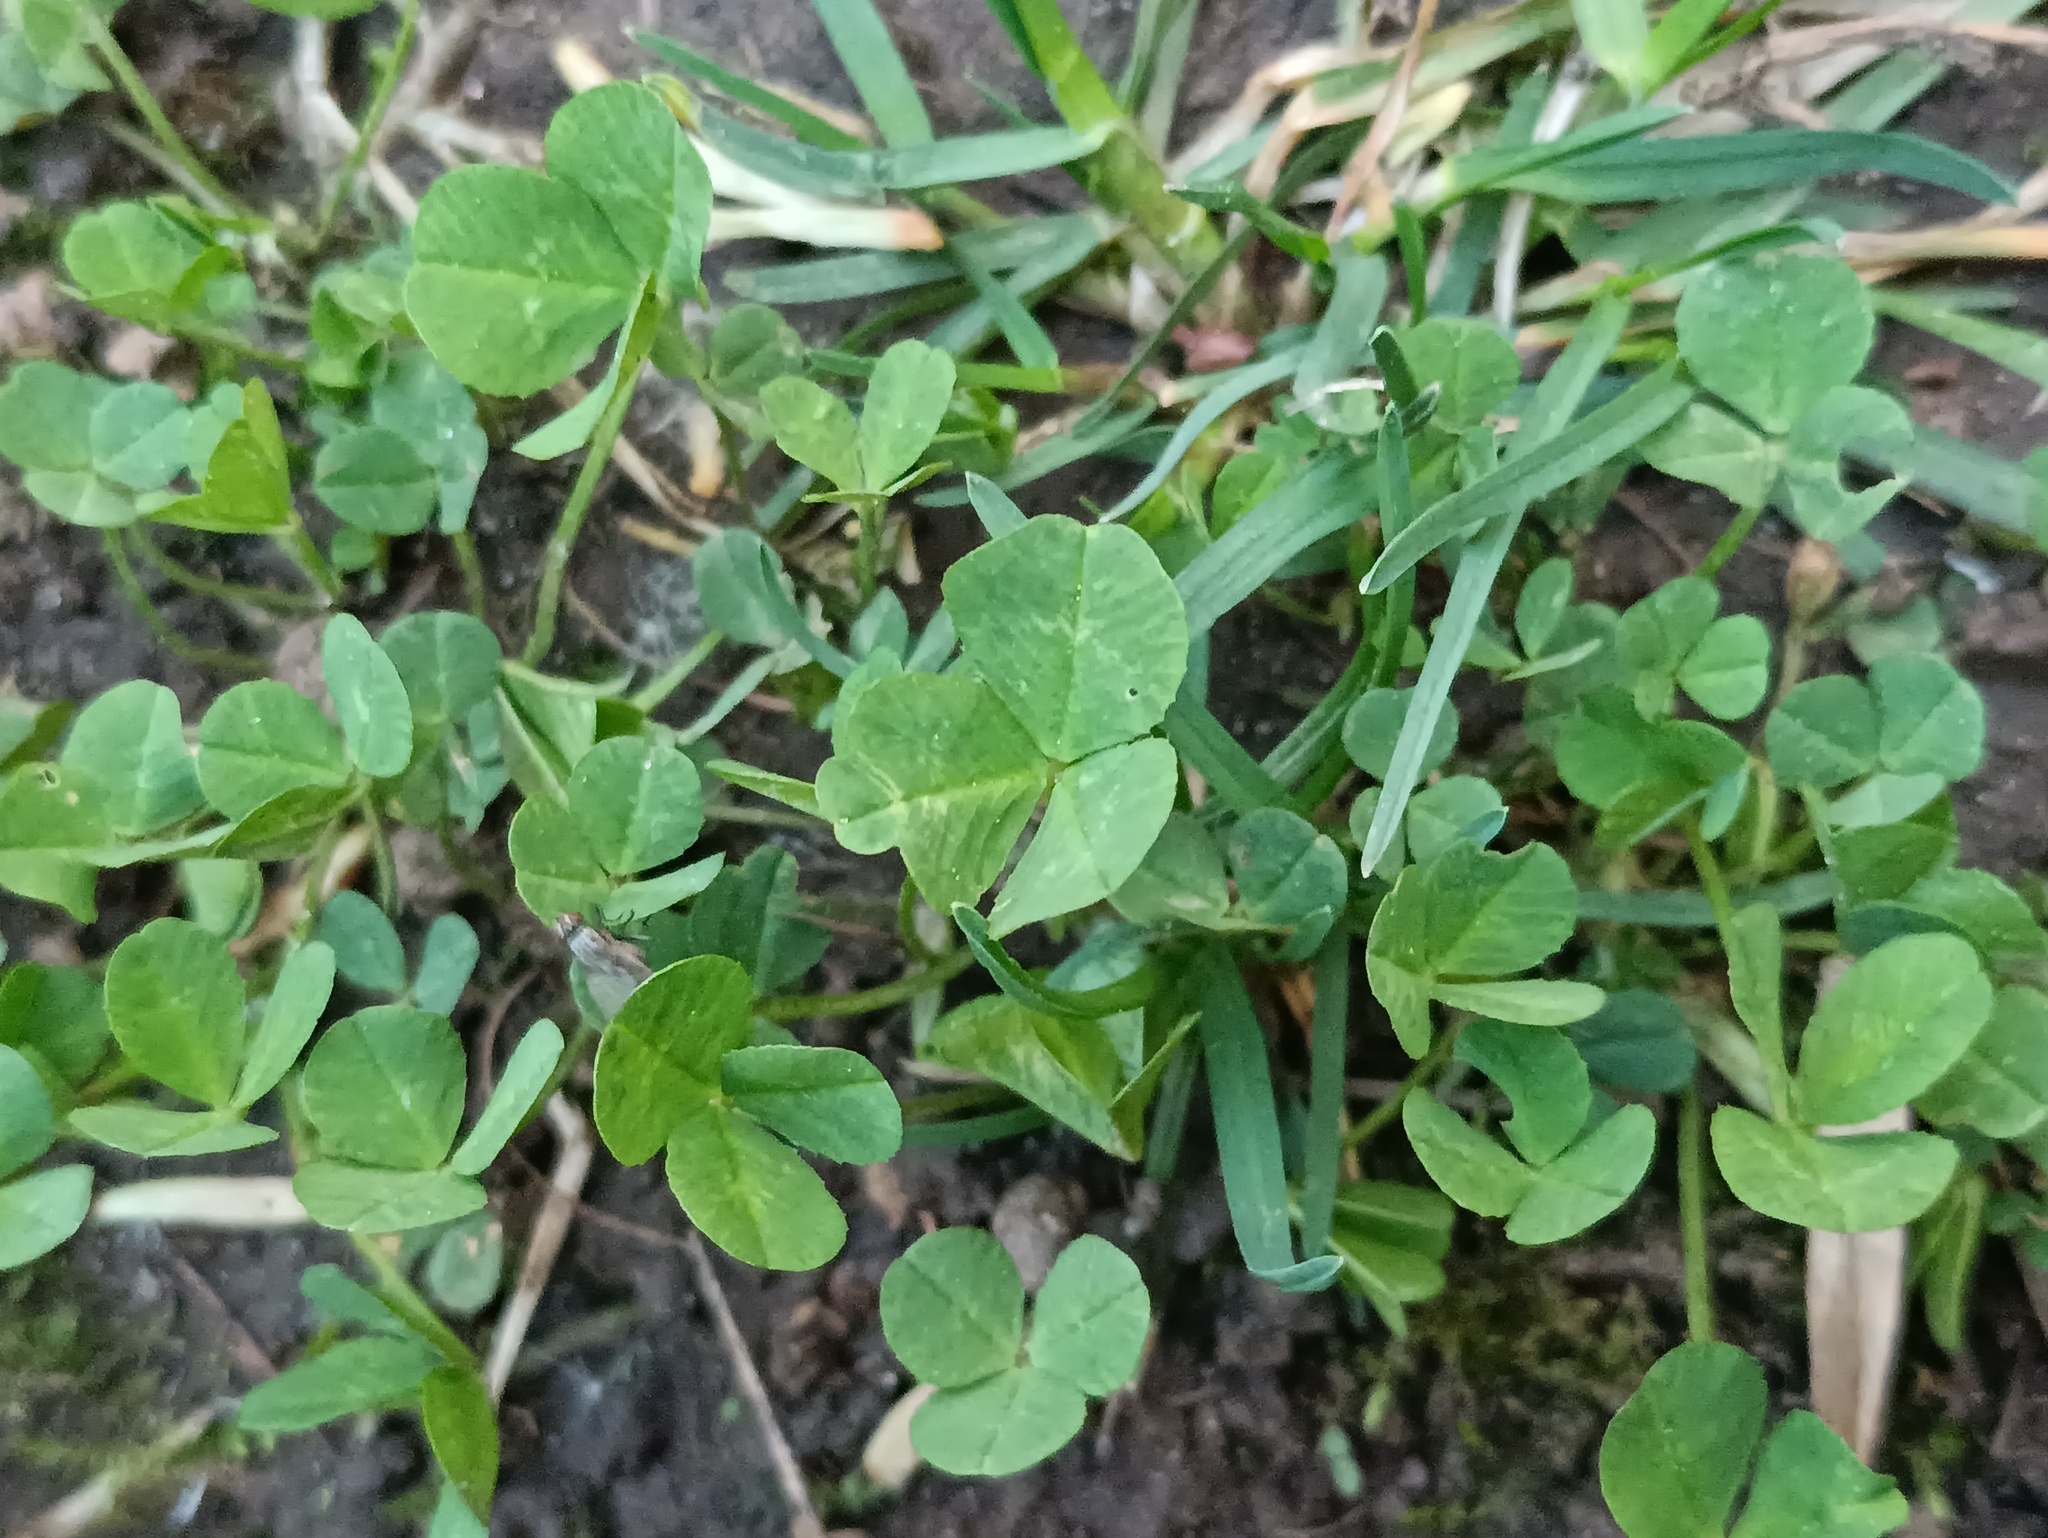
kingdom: Plantae
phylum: Tracheophyta
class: Magnoliopsida
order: Fabales
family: Fabaceae
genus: Trifolium
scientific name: Trifolium repens
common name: White clover
